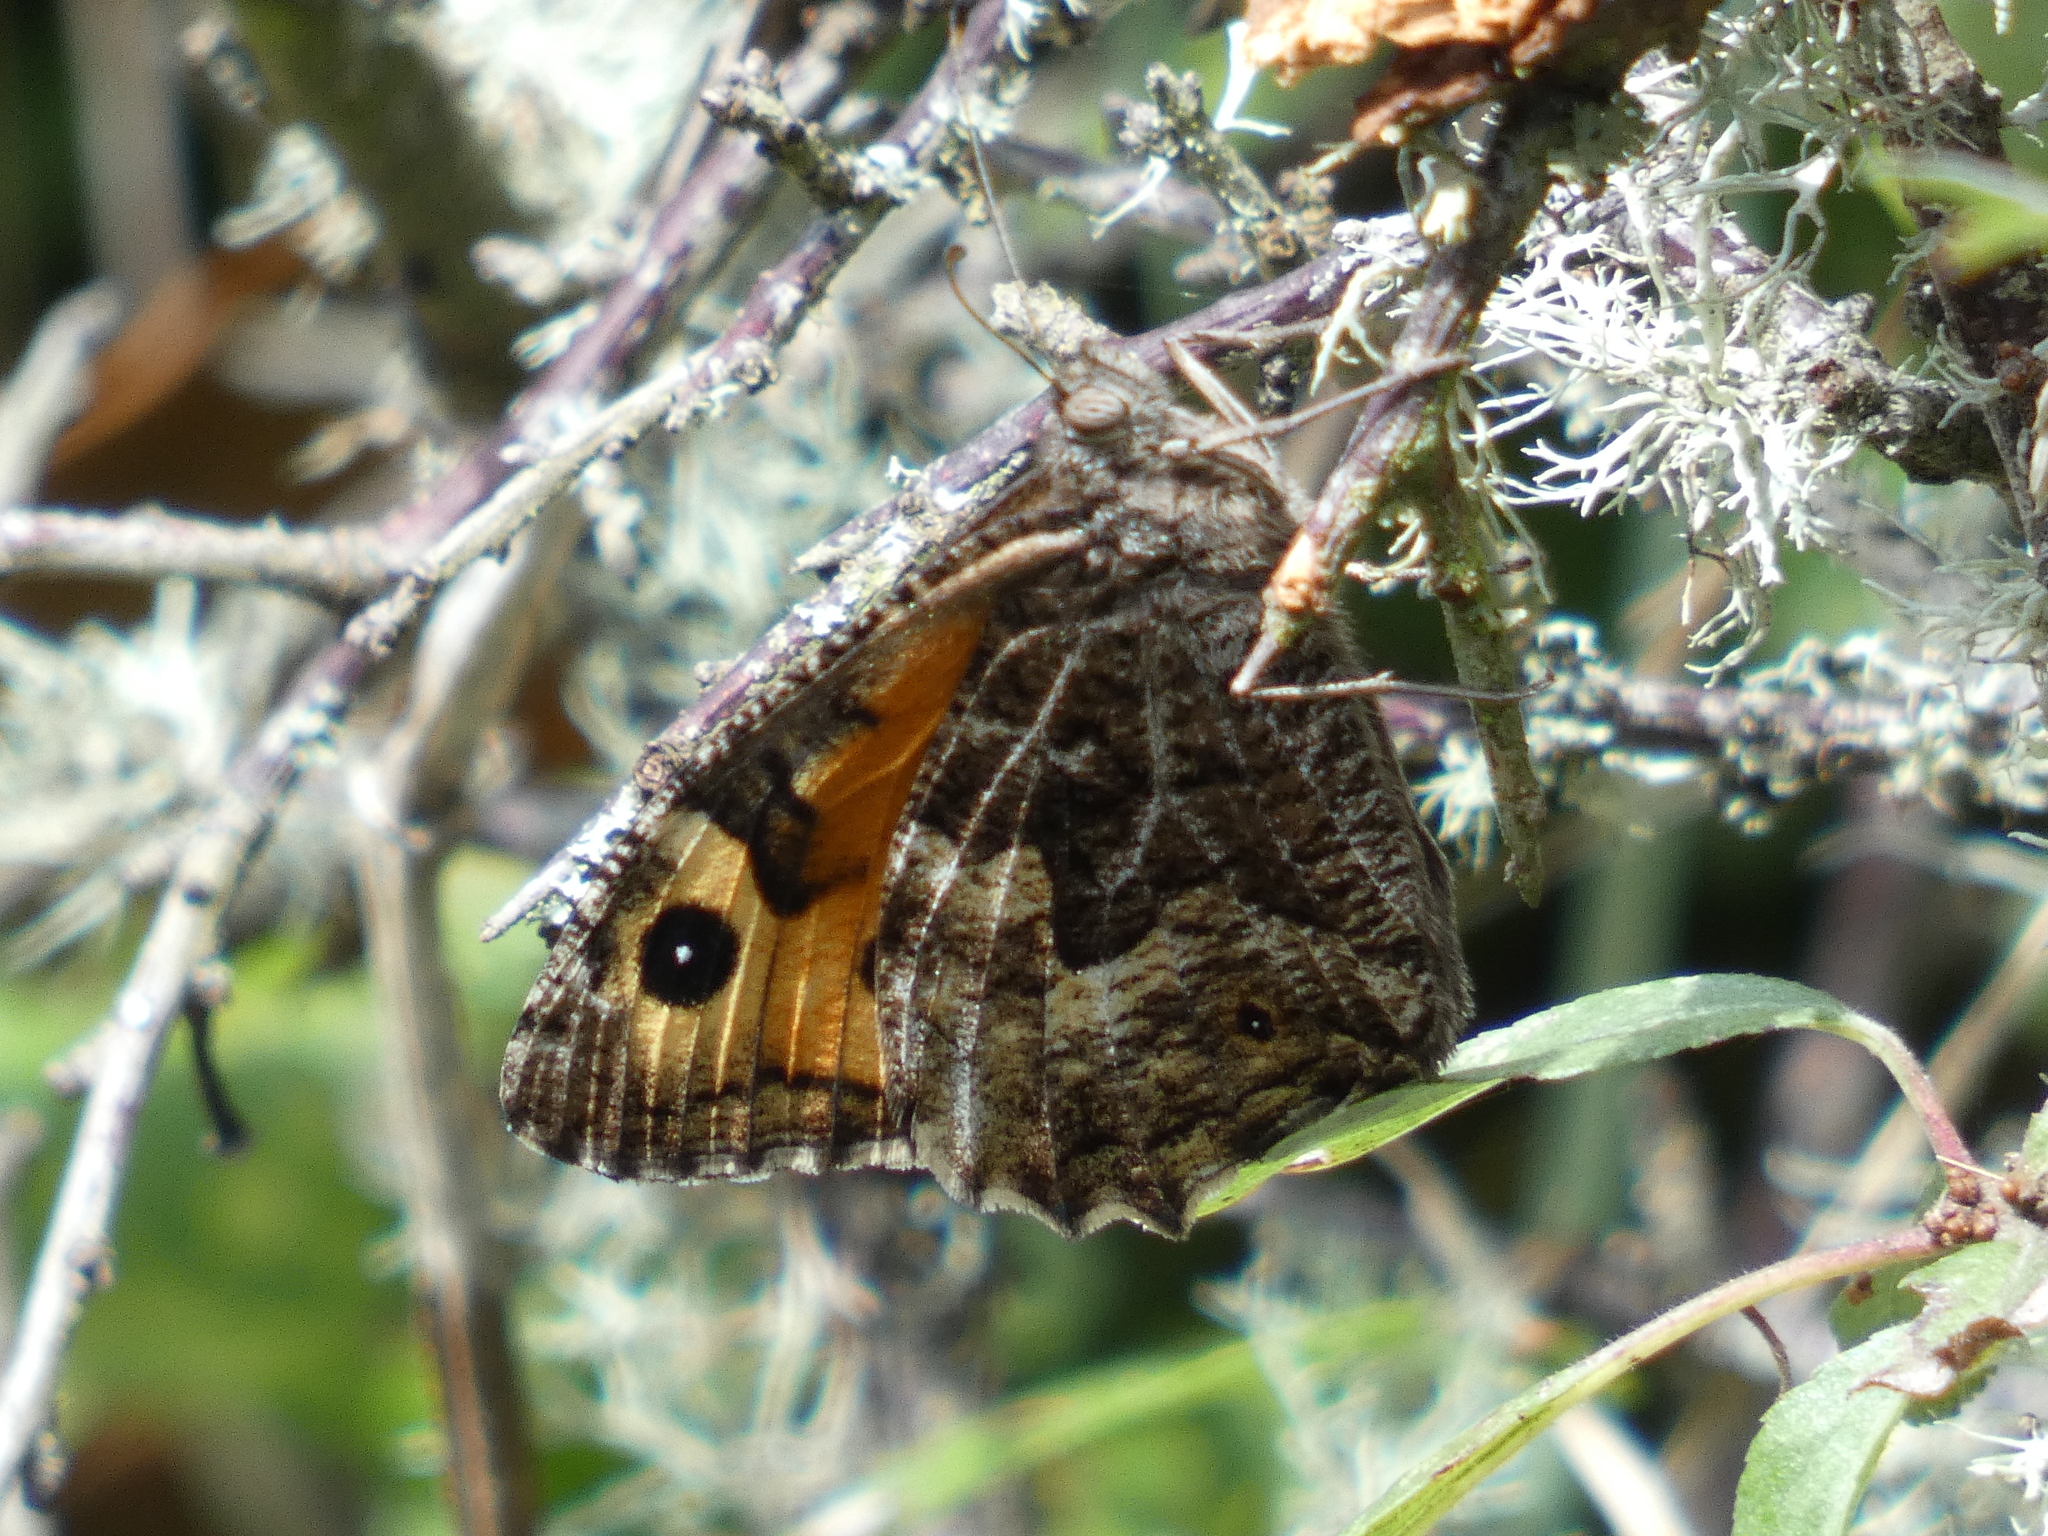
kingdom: Animalia
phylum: Arthropoda
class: Insecta
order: Lepidoptera
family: Nymphalidae
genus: Hipparchia
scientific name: Hipparchia semele
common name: Grayling
